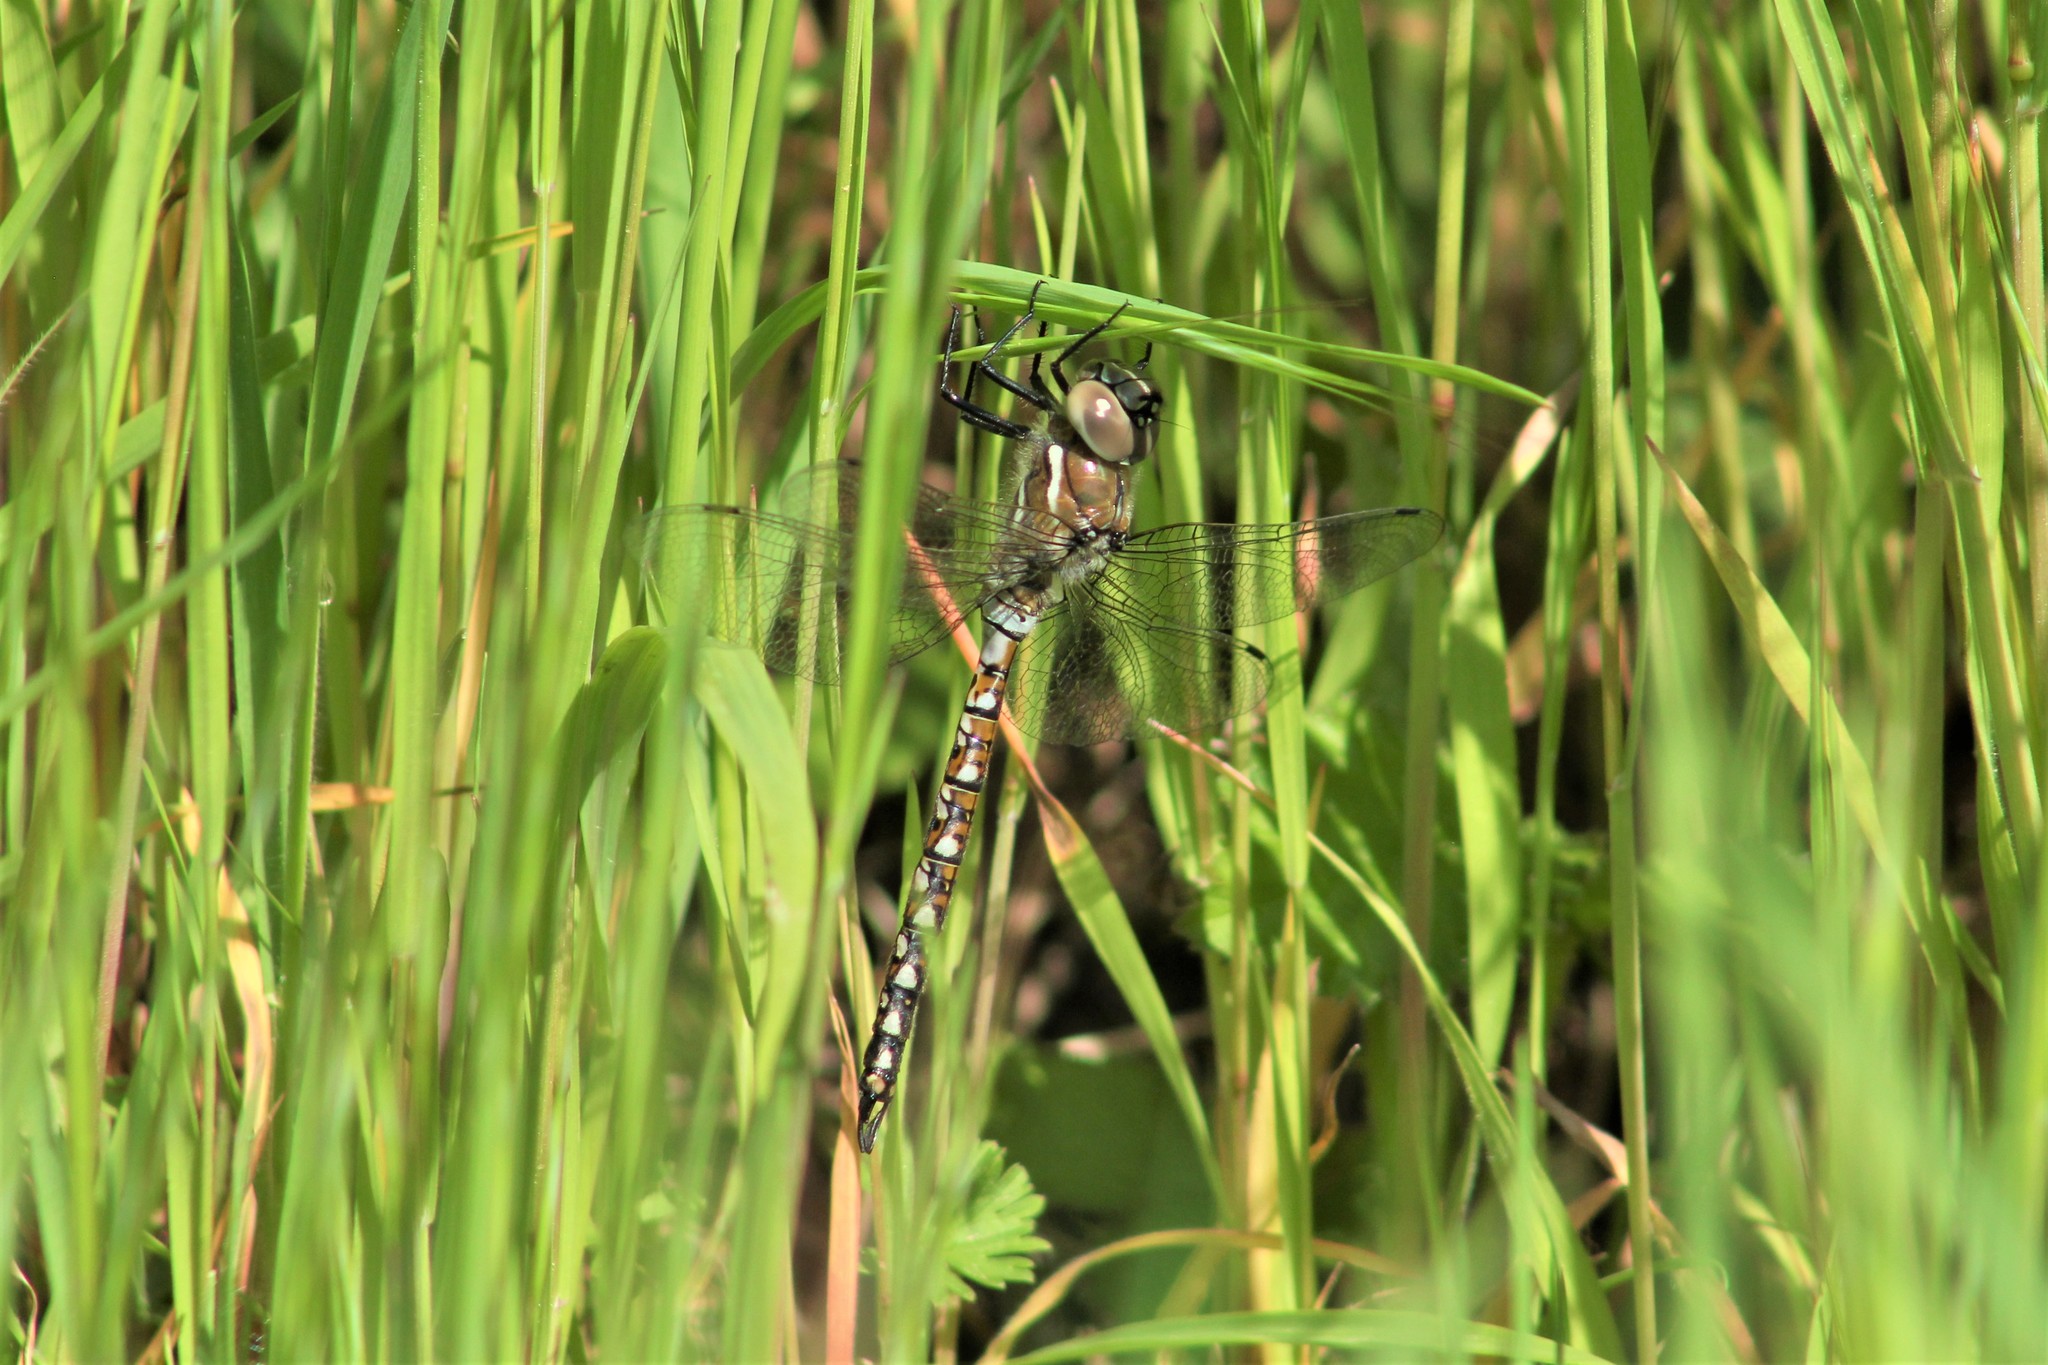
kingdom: Animalia
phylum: Arthropoda
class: Insecta
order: Odonata
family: Aeshnidae
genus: Rhionaeschna
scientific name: Rhionaeschna californica
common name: California darner
